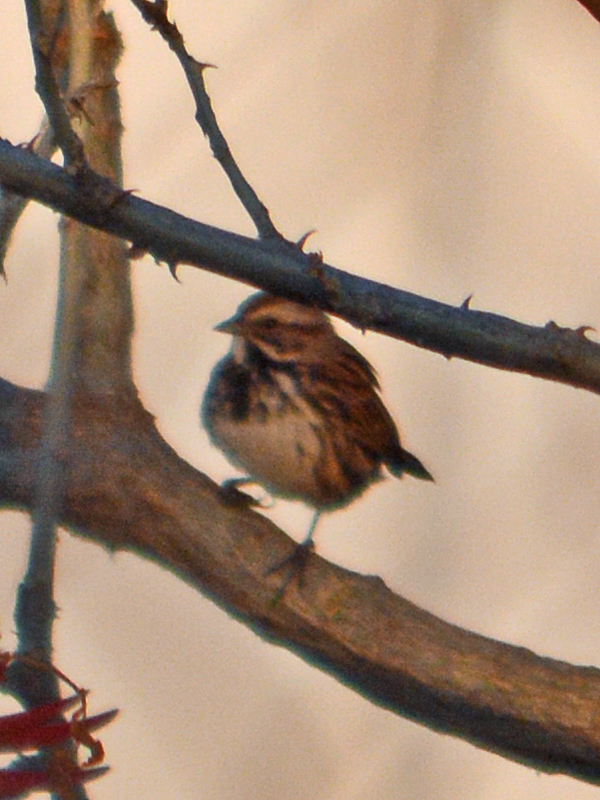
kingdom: Animalia
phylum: Chordata
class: Aves
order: Passeriformes
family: Passerellidae
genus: Melospiza
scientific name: Melospiza melodia
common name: Song sparrow
